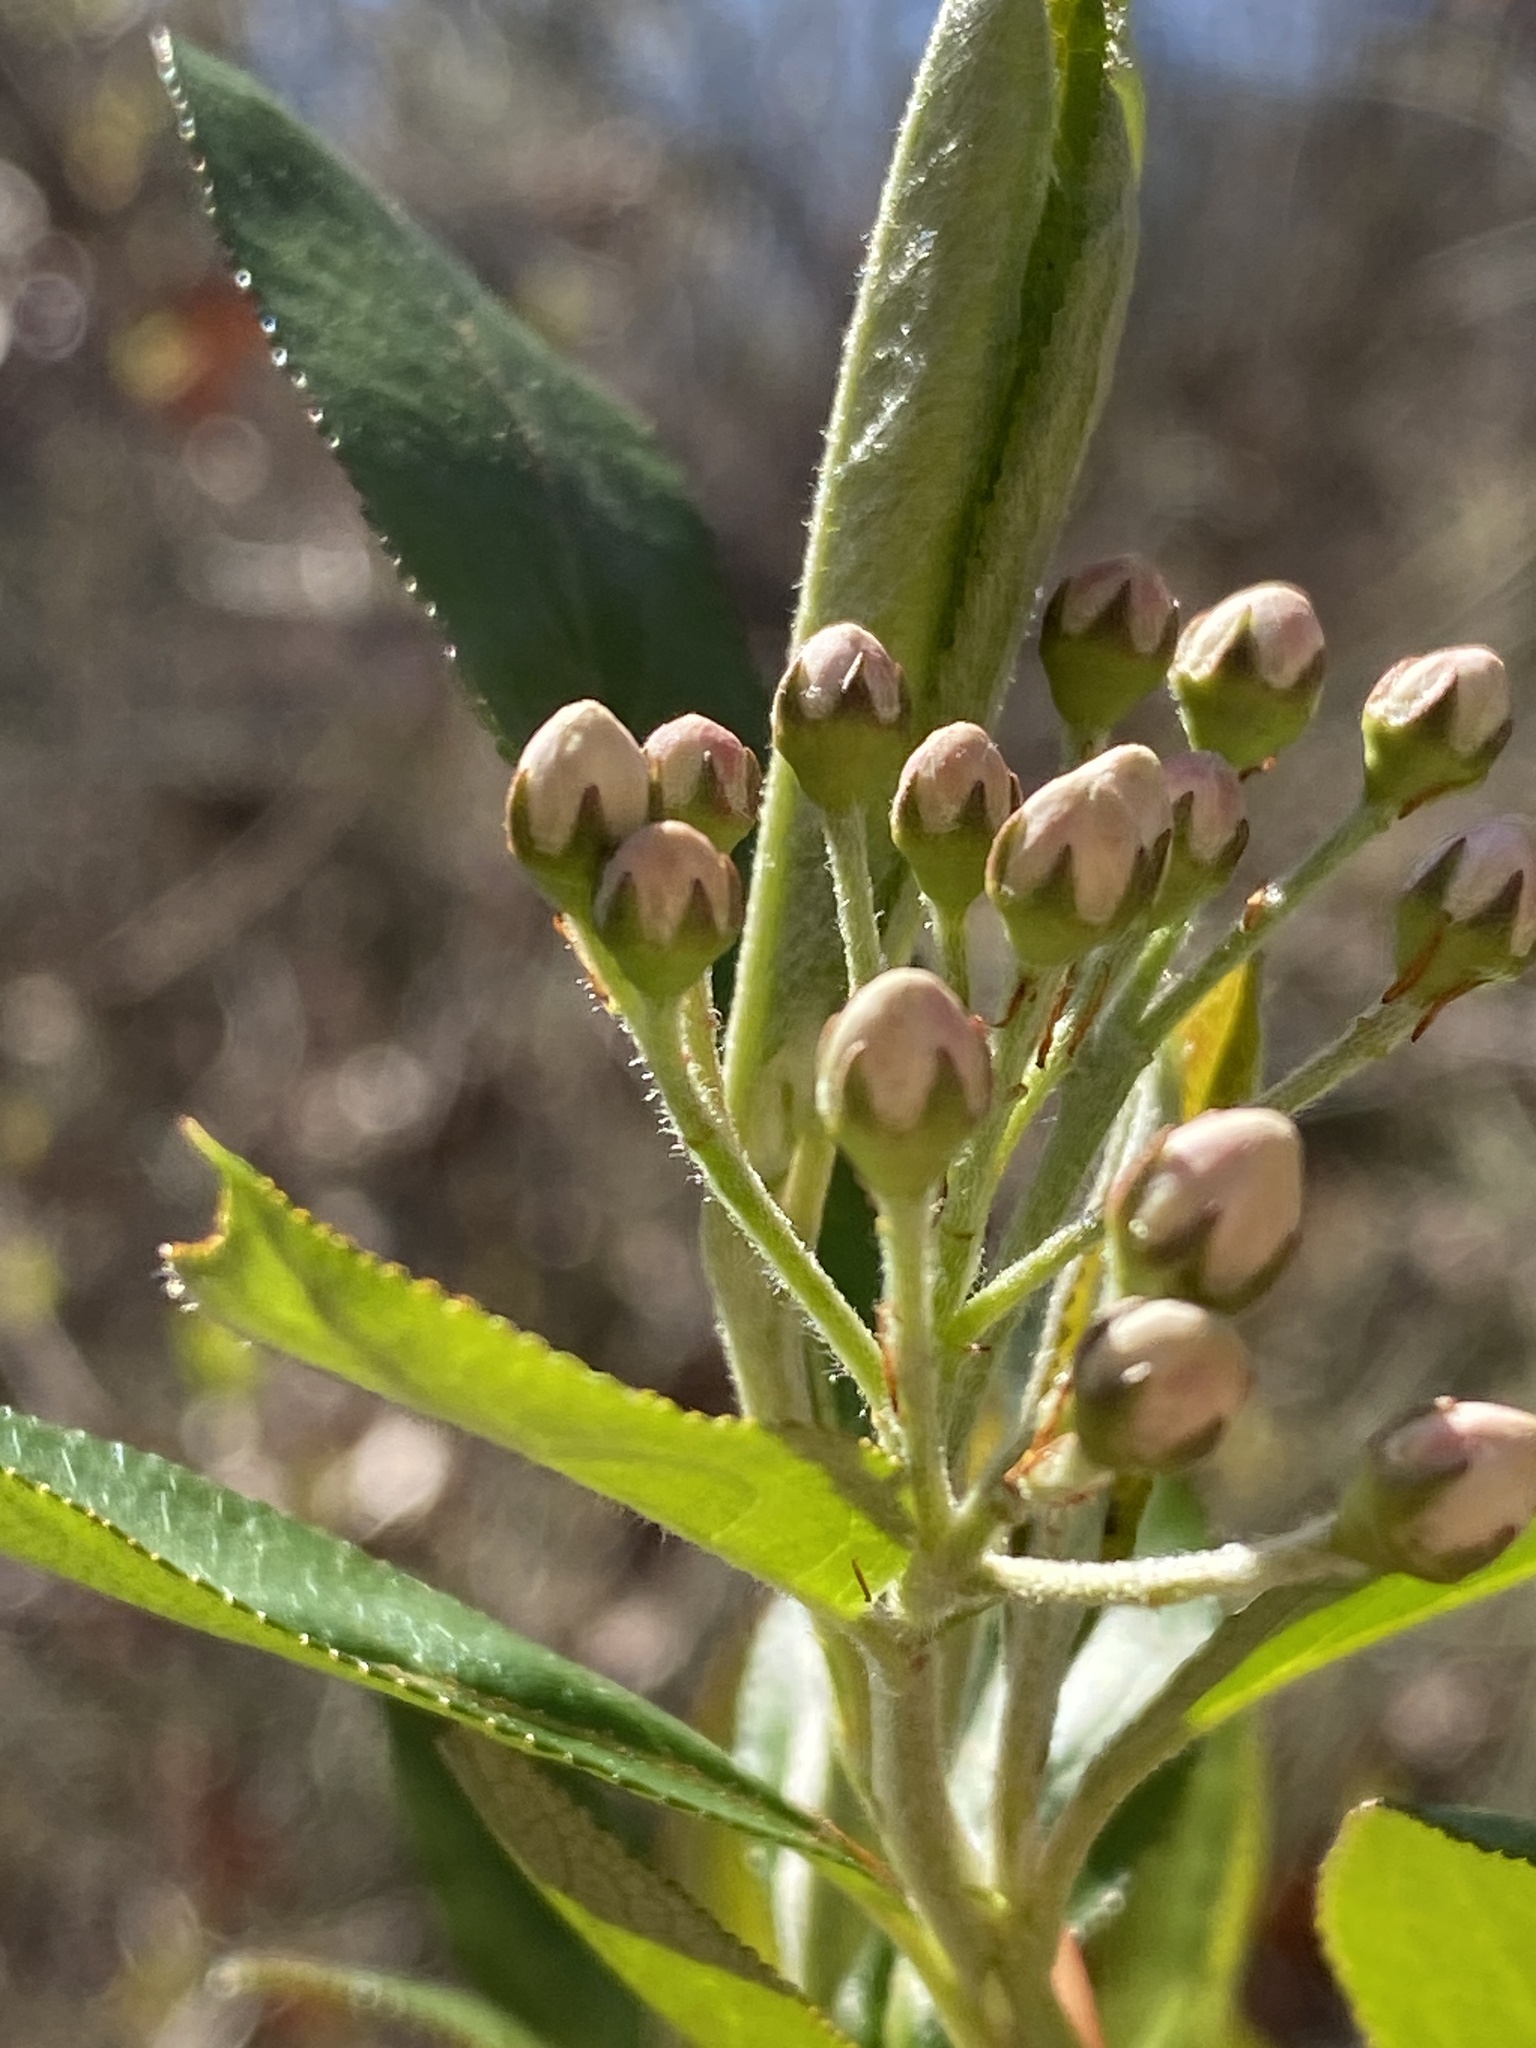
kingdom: Plantae
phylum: Tracheophyta
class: Magnoliopsida
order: Rosales
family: Rosaceae
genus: Aronia
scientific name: Aronia arbutifolia
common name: Red chokeberry
